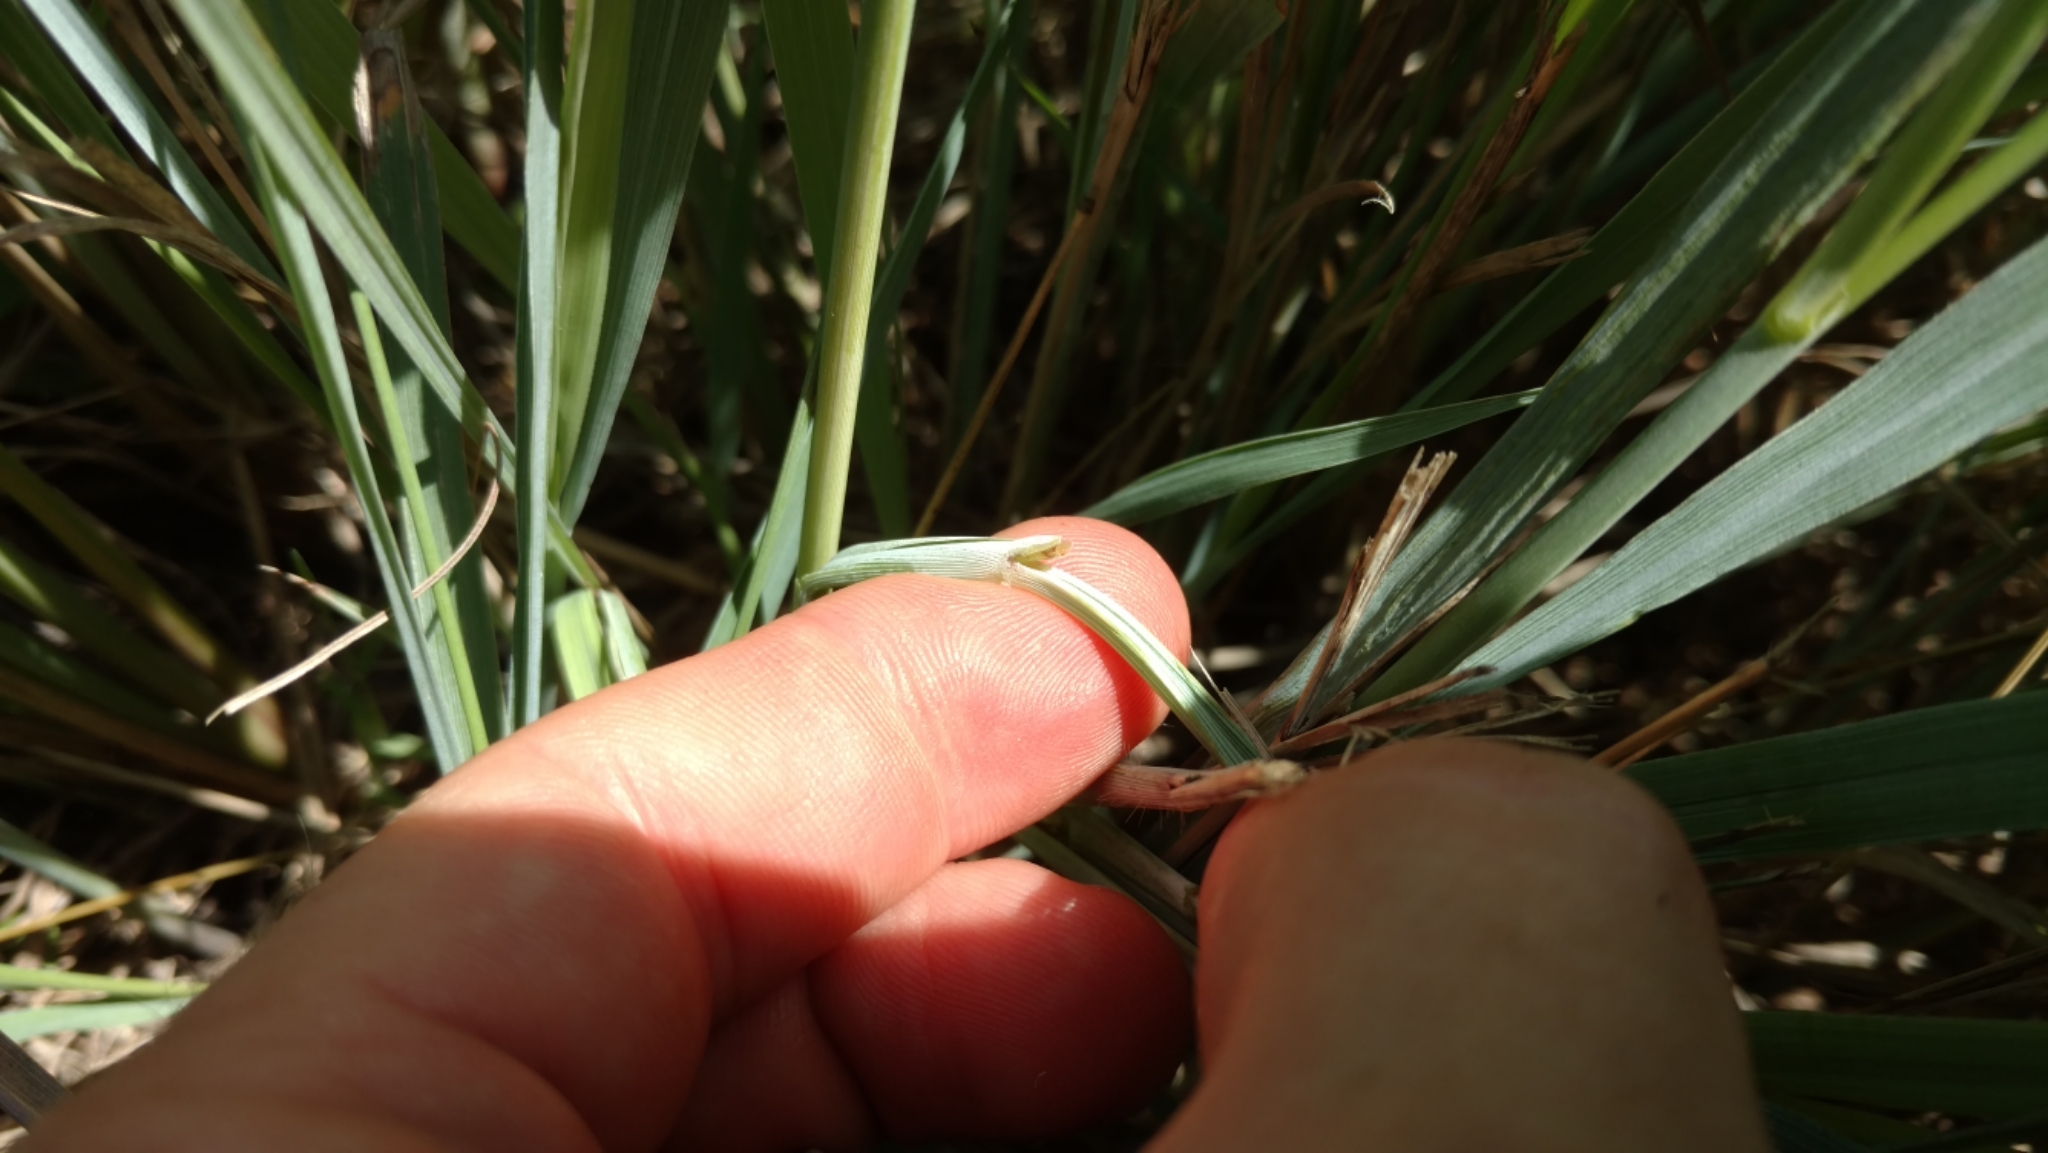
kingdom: Plantae
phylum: Tracheophyta
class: Liliopsida
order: Poales
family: Poaceae
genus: Sorghastrum
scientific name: Sorghastrum nutans
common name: Indian grass
